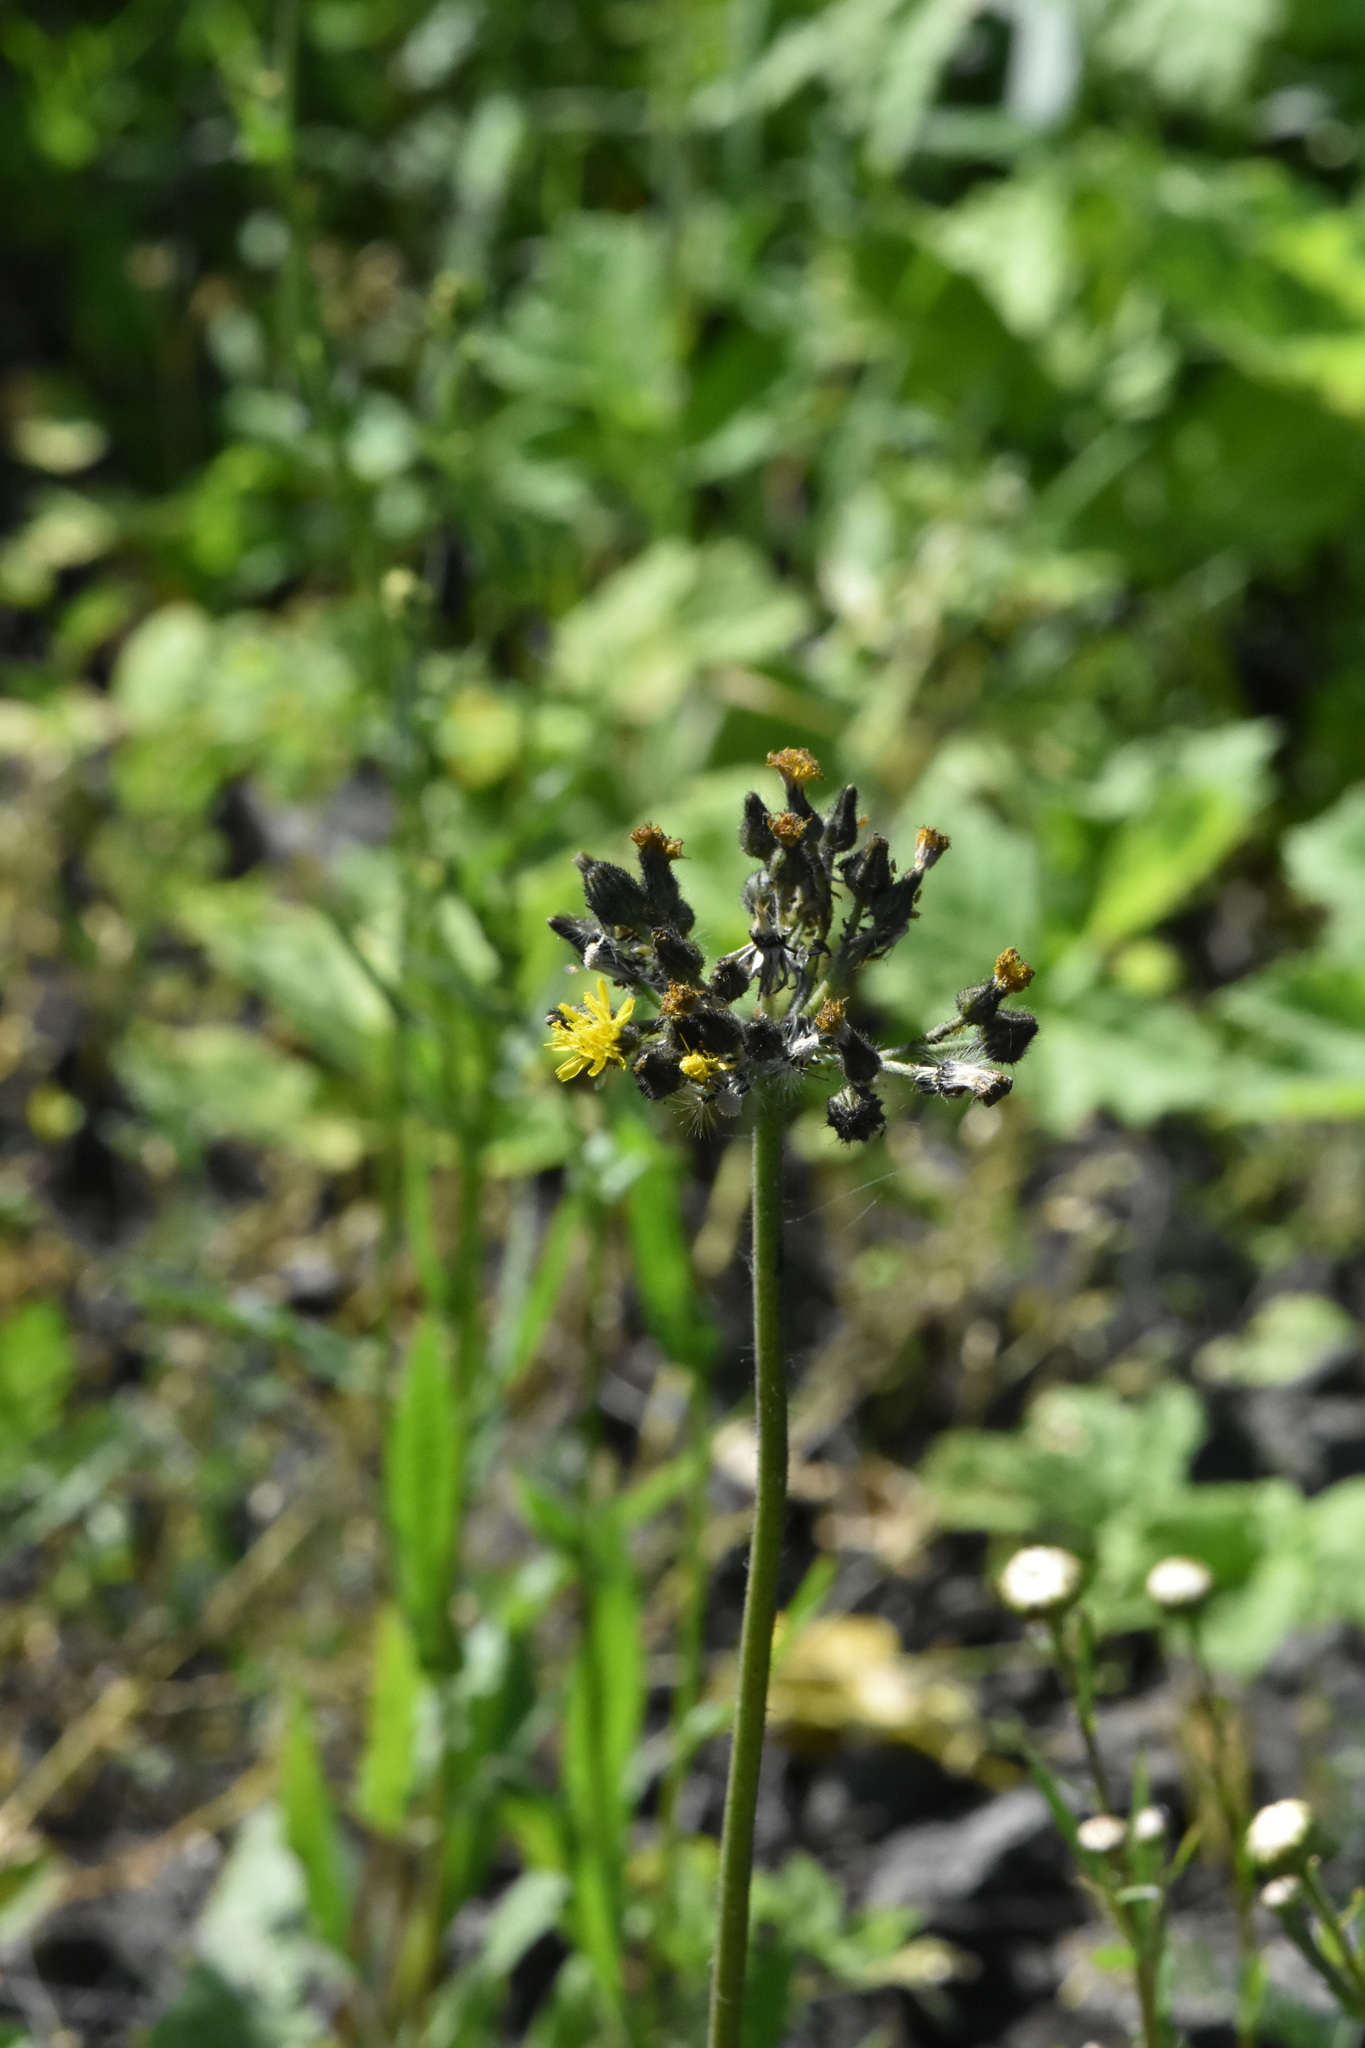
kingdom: Plantae
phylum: Tracheophyta
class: Magnoliopsida
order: Asterales
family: Asteraceae
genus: Pilosella
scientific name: Pilosella
